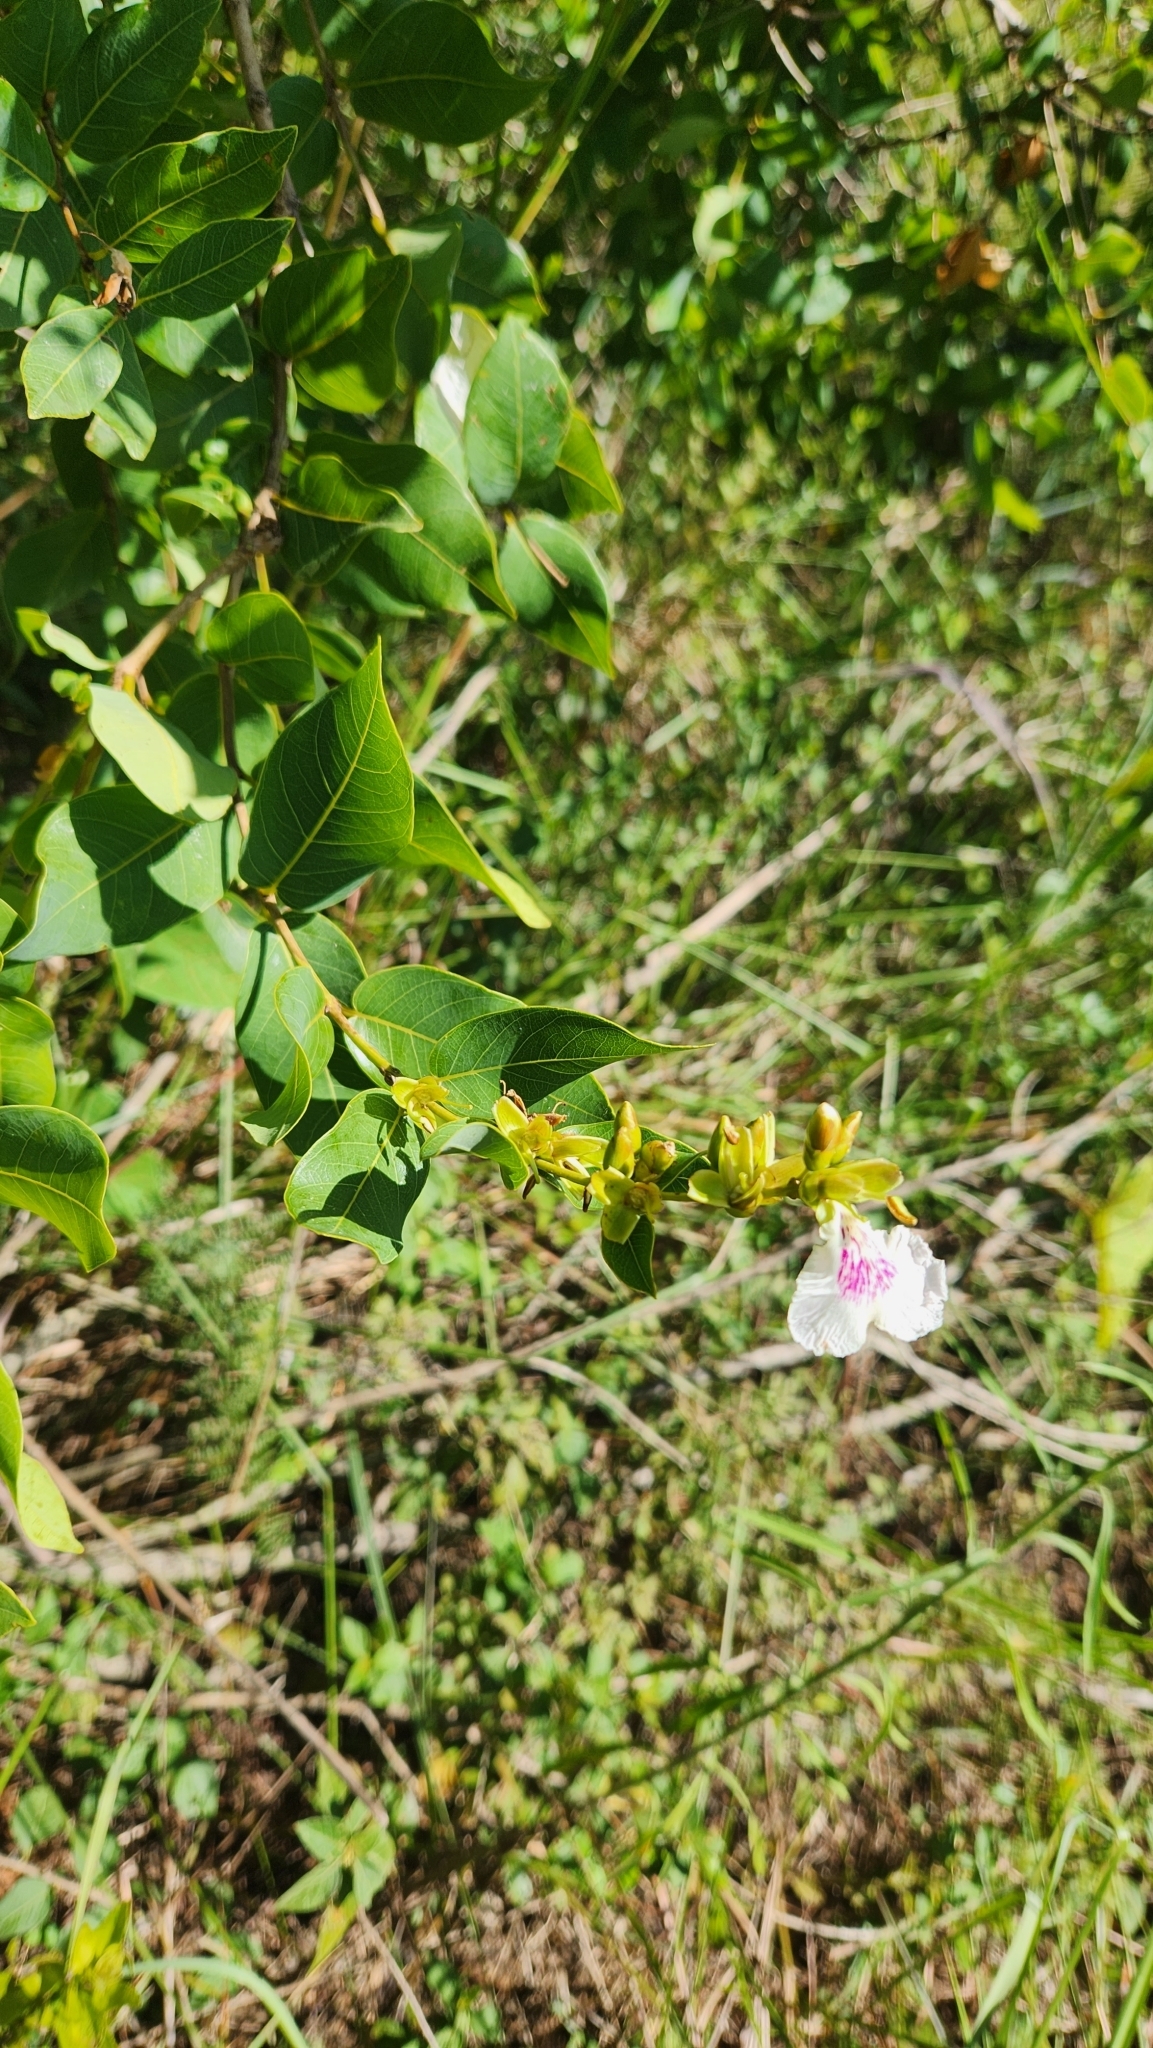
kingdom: Plantae
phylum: Tracheophyta
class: Magnoliopsida
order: Myrtales
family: Vochysiaceae
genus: Qualea
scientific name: Qualea cordata
